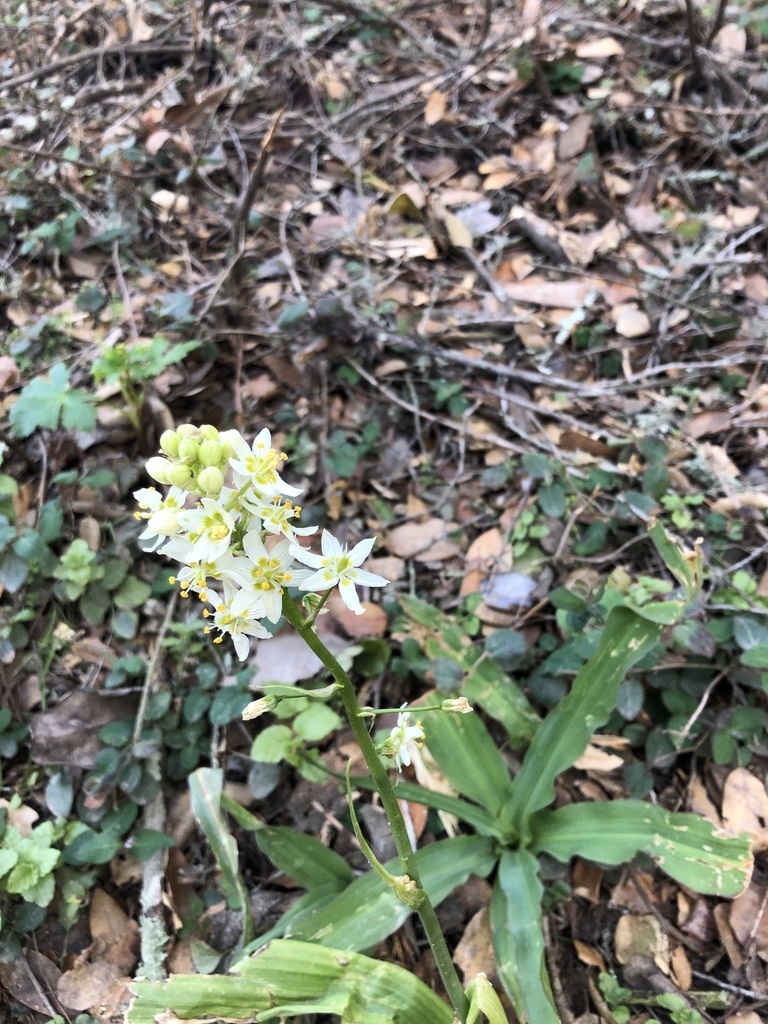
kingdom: Plantae
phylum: Tracheophyta
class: Liliopsida
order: Liliales
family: Melanthiaceae
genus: Toxicoscordion
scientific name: Toxicoscordion fremontii
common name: Fremont's death camas
